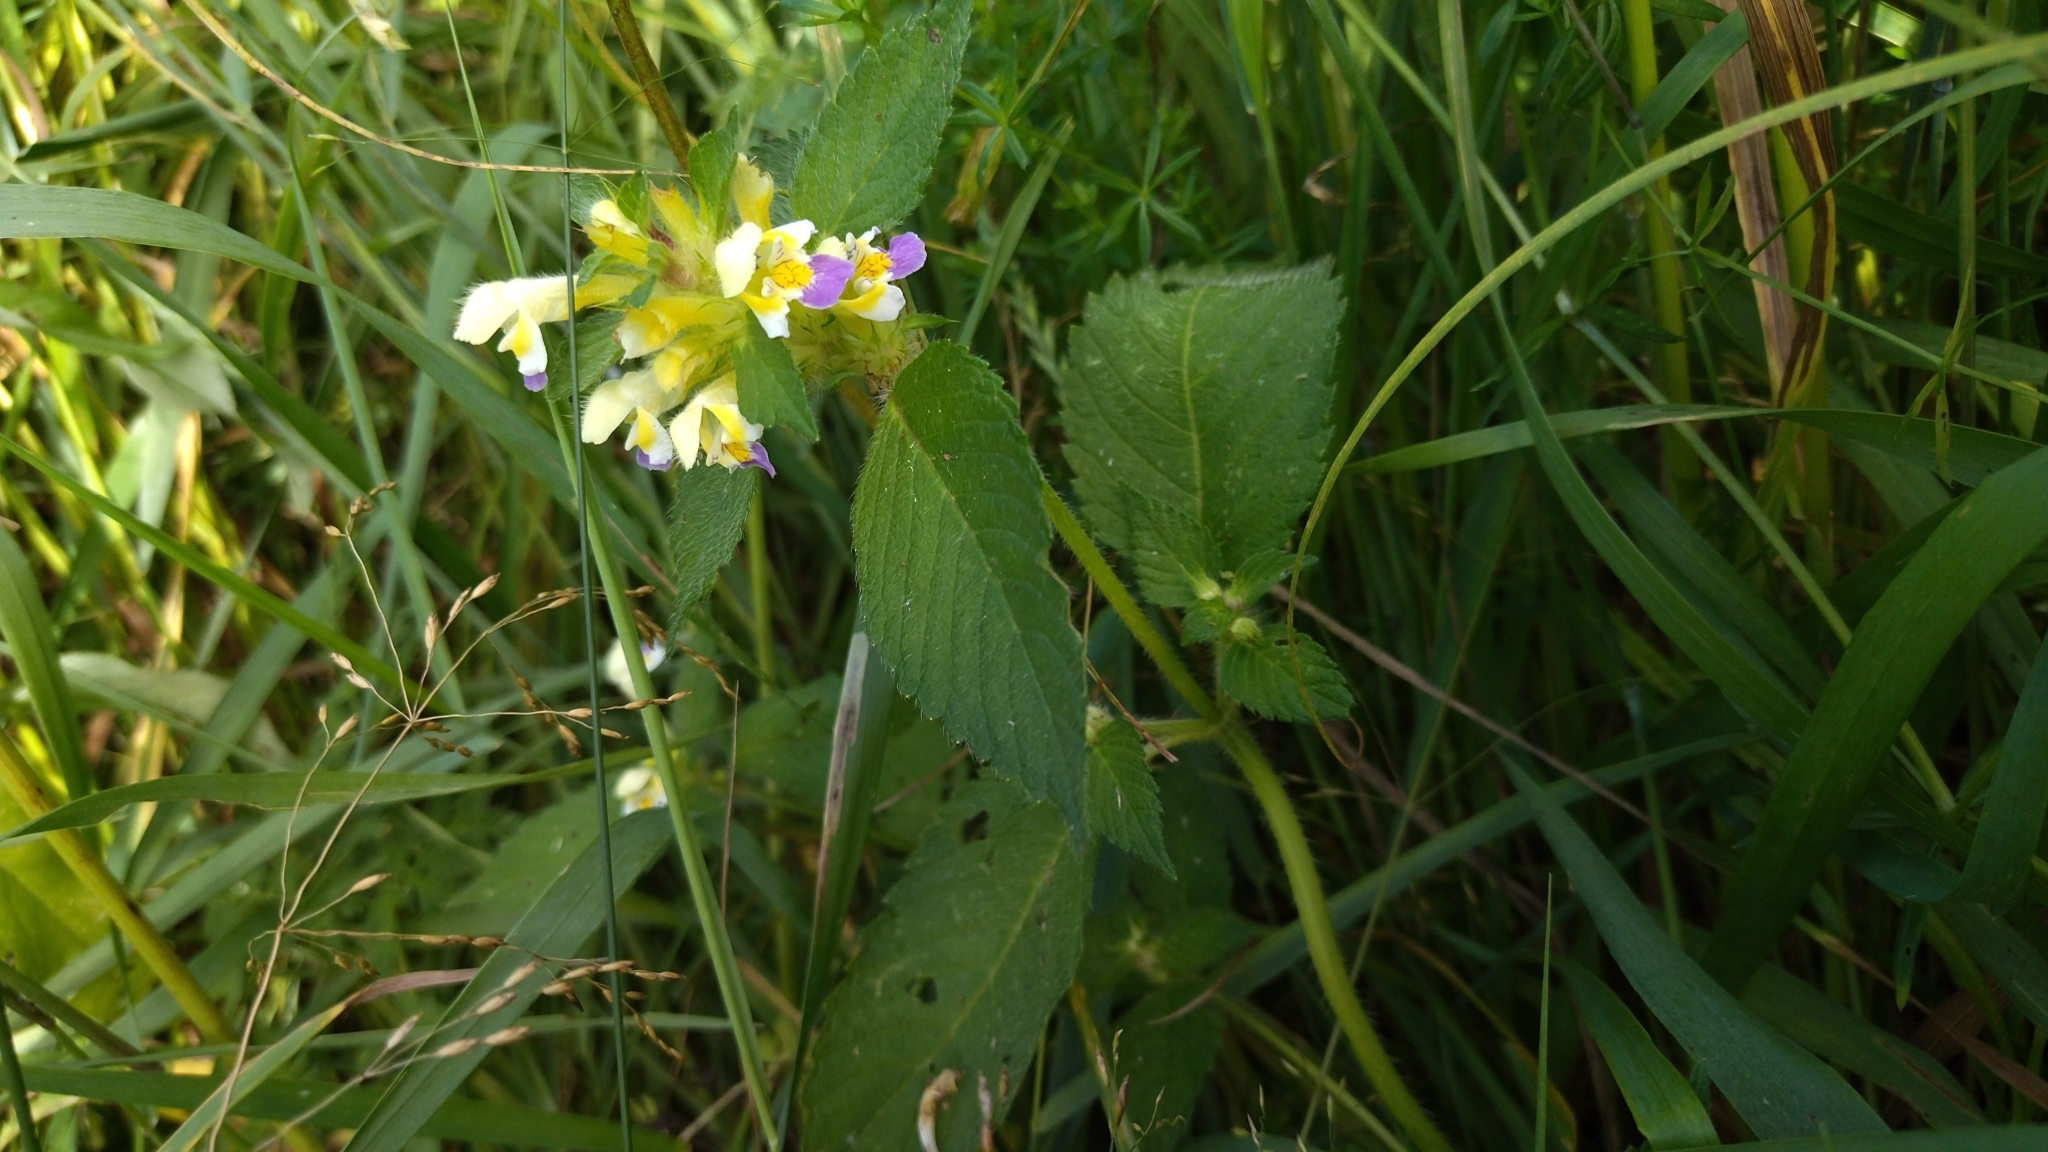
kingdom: Plantae
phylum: Tracheophyta
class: Magnoliopsida
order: Lamiales
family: Lamiaceae
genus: Galeopsis
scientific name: Galeopsis speciosa
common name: Large-flowered hemp-nettle
